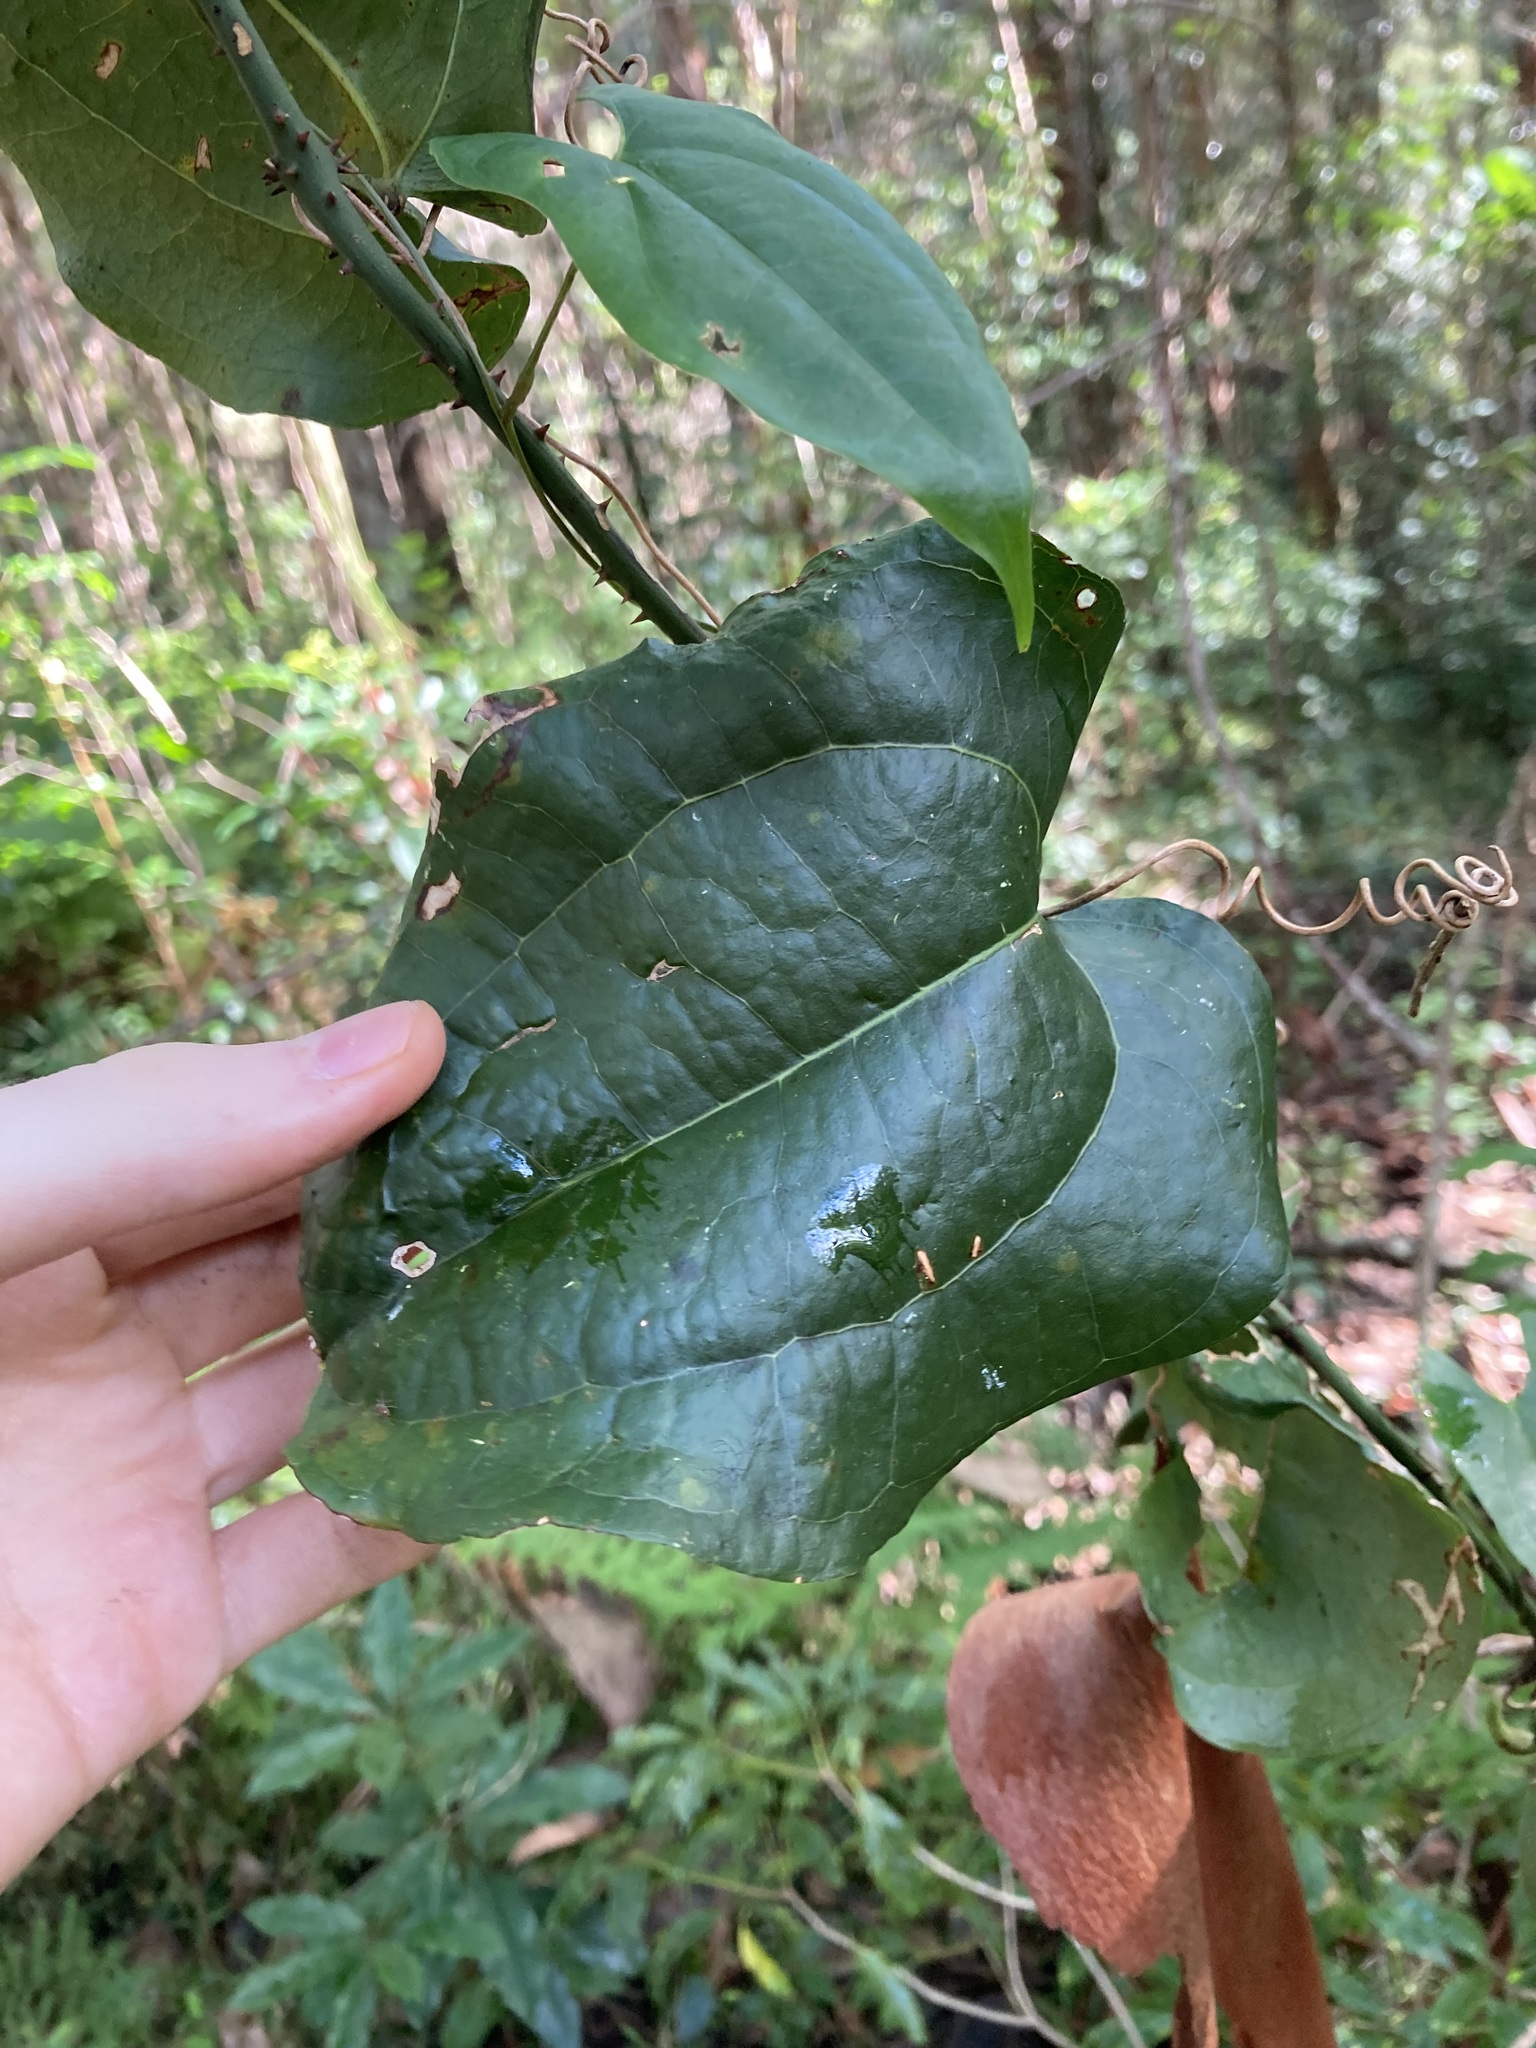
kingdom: Plantae
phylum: Tracheophyta
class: Liliopsida
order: Liliales
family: Smilacaceae
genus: Smilax
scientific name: Smilax australis
